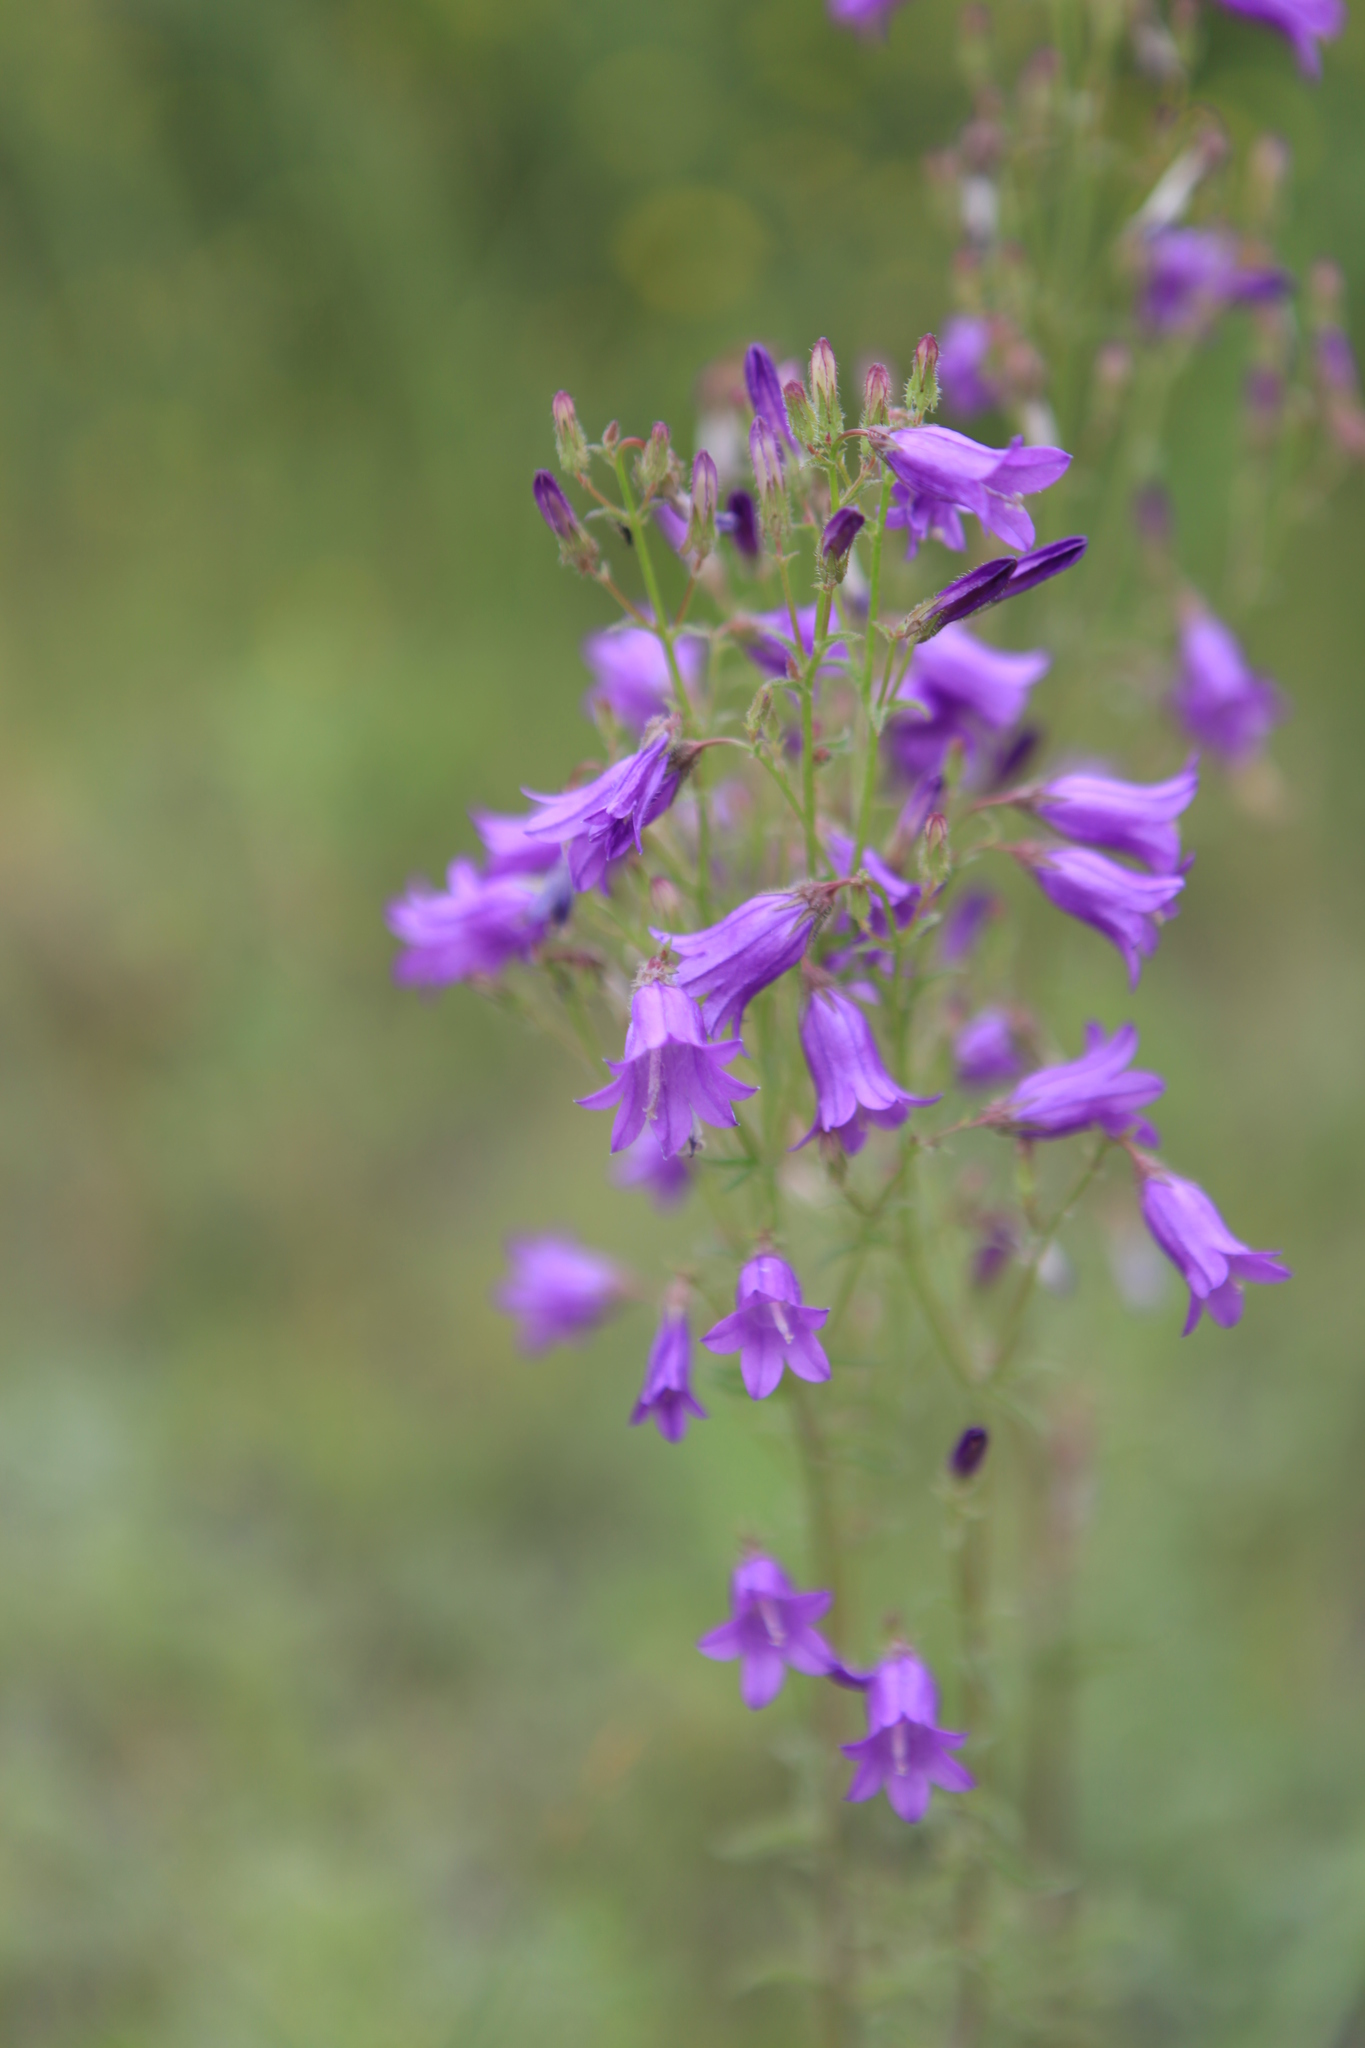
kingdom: Plantae
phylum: Tracheophyta
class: Magnoliopsida
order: Asterales
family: Campanulaceae
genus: Campanula
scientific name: Campanula sibirica
